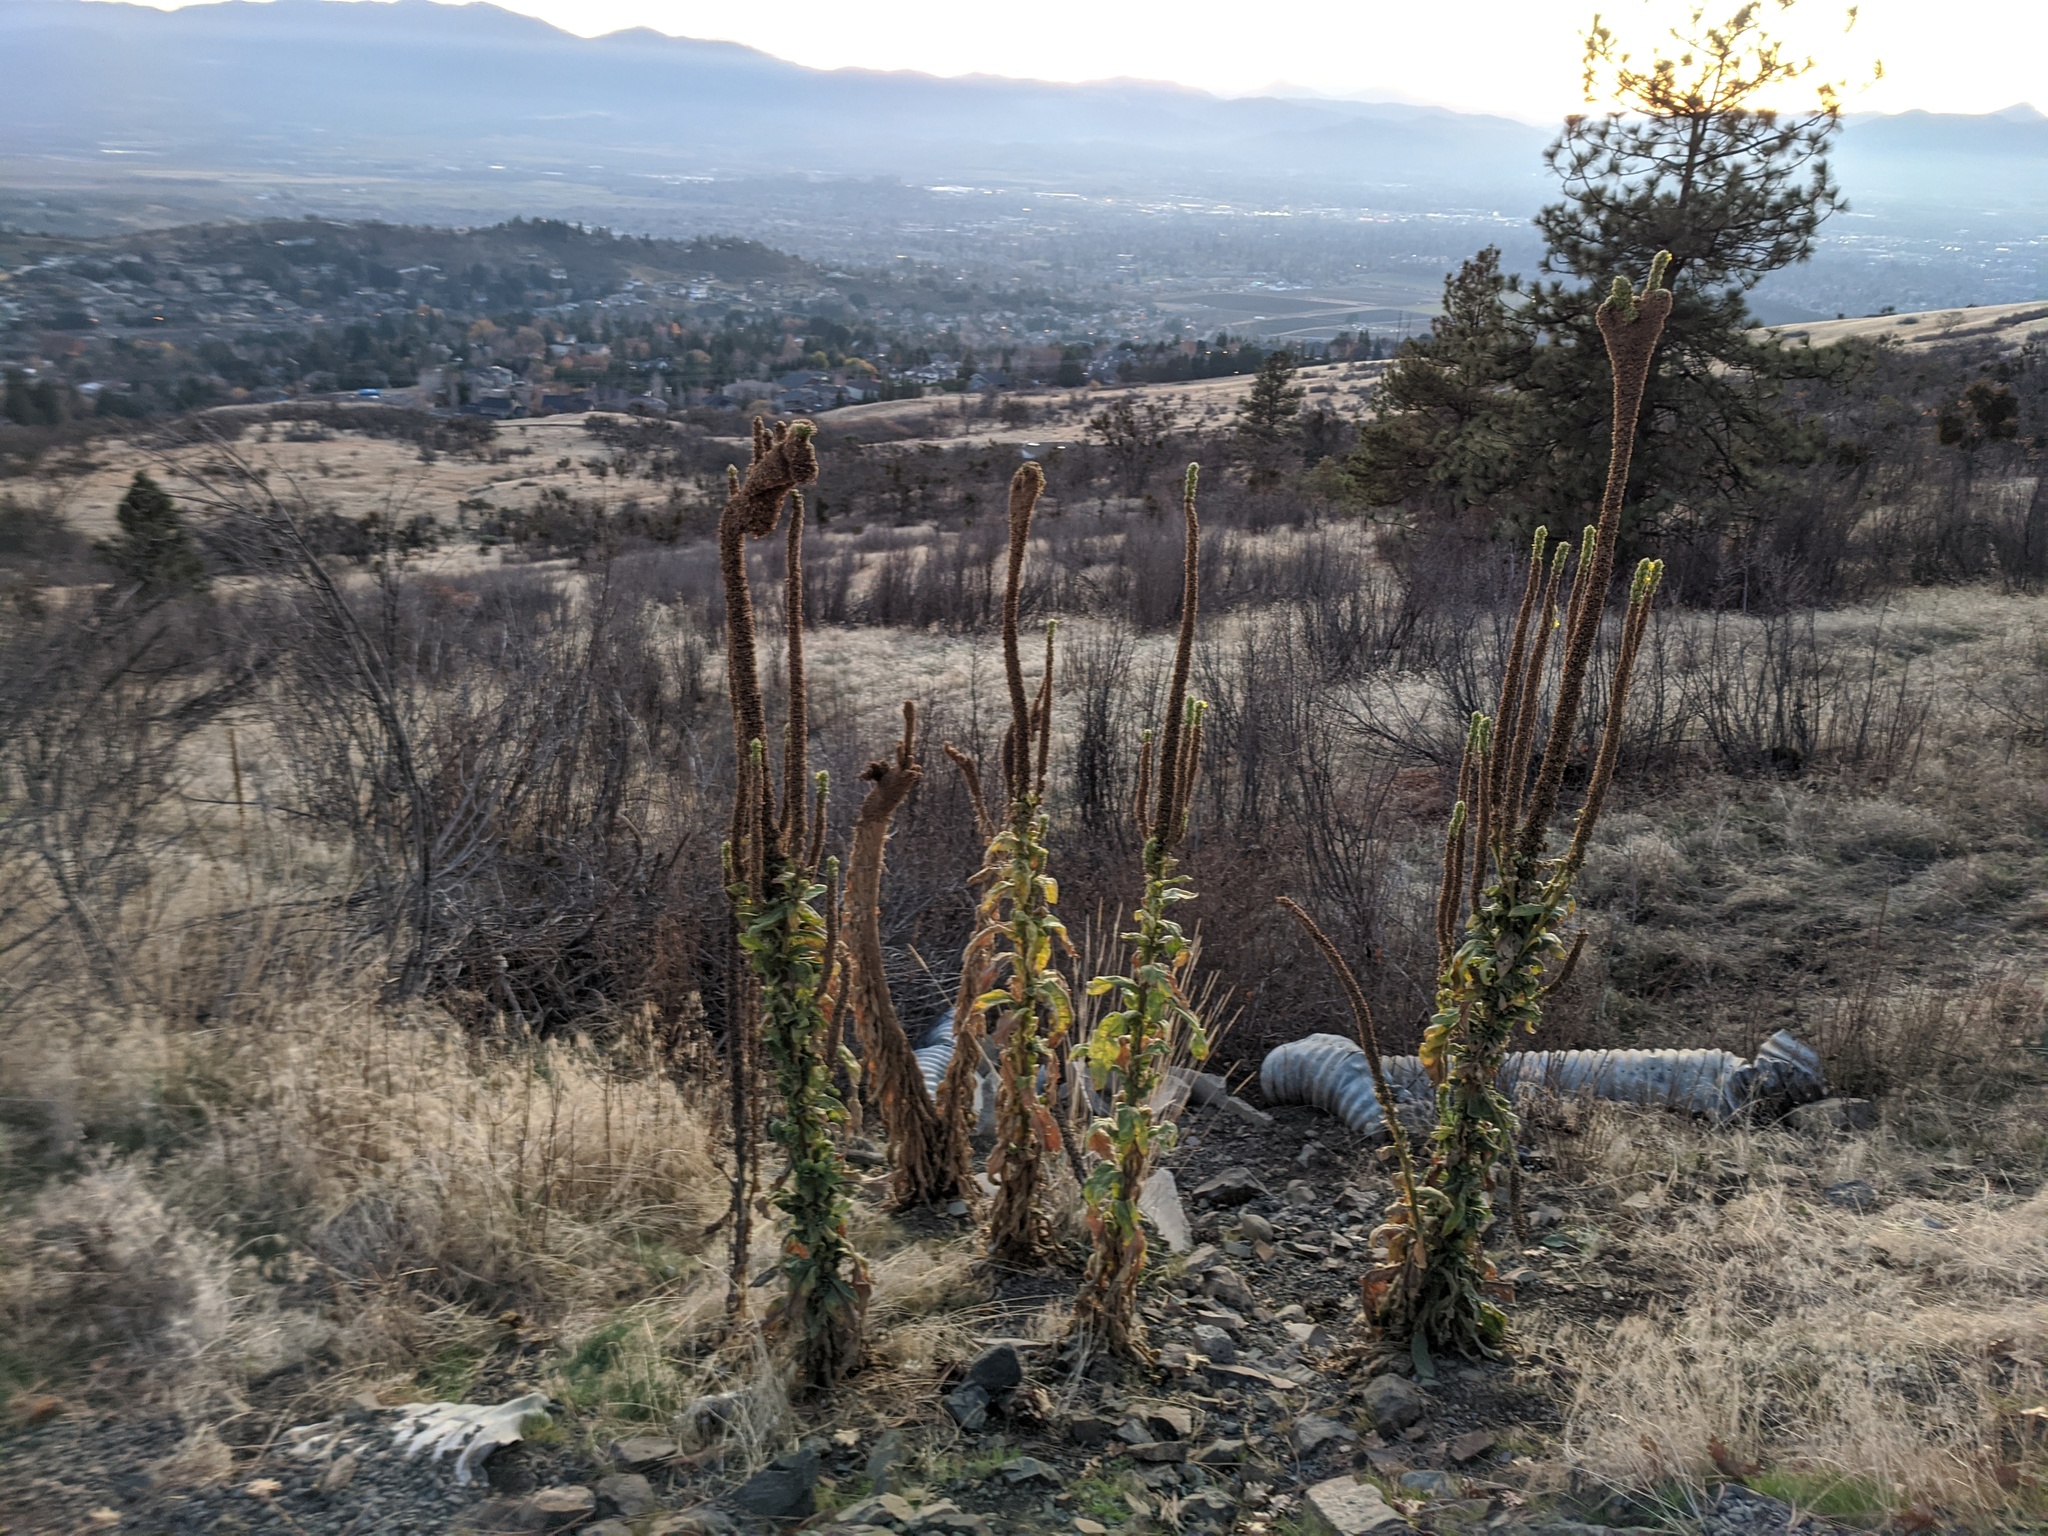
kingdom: Plantae
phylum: Tracheophyta
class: Magnoliopsida
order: Lamiales
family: Scrophulariaceae
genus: Verbascum
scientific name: Verbascum thapsus
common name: Common mullein
